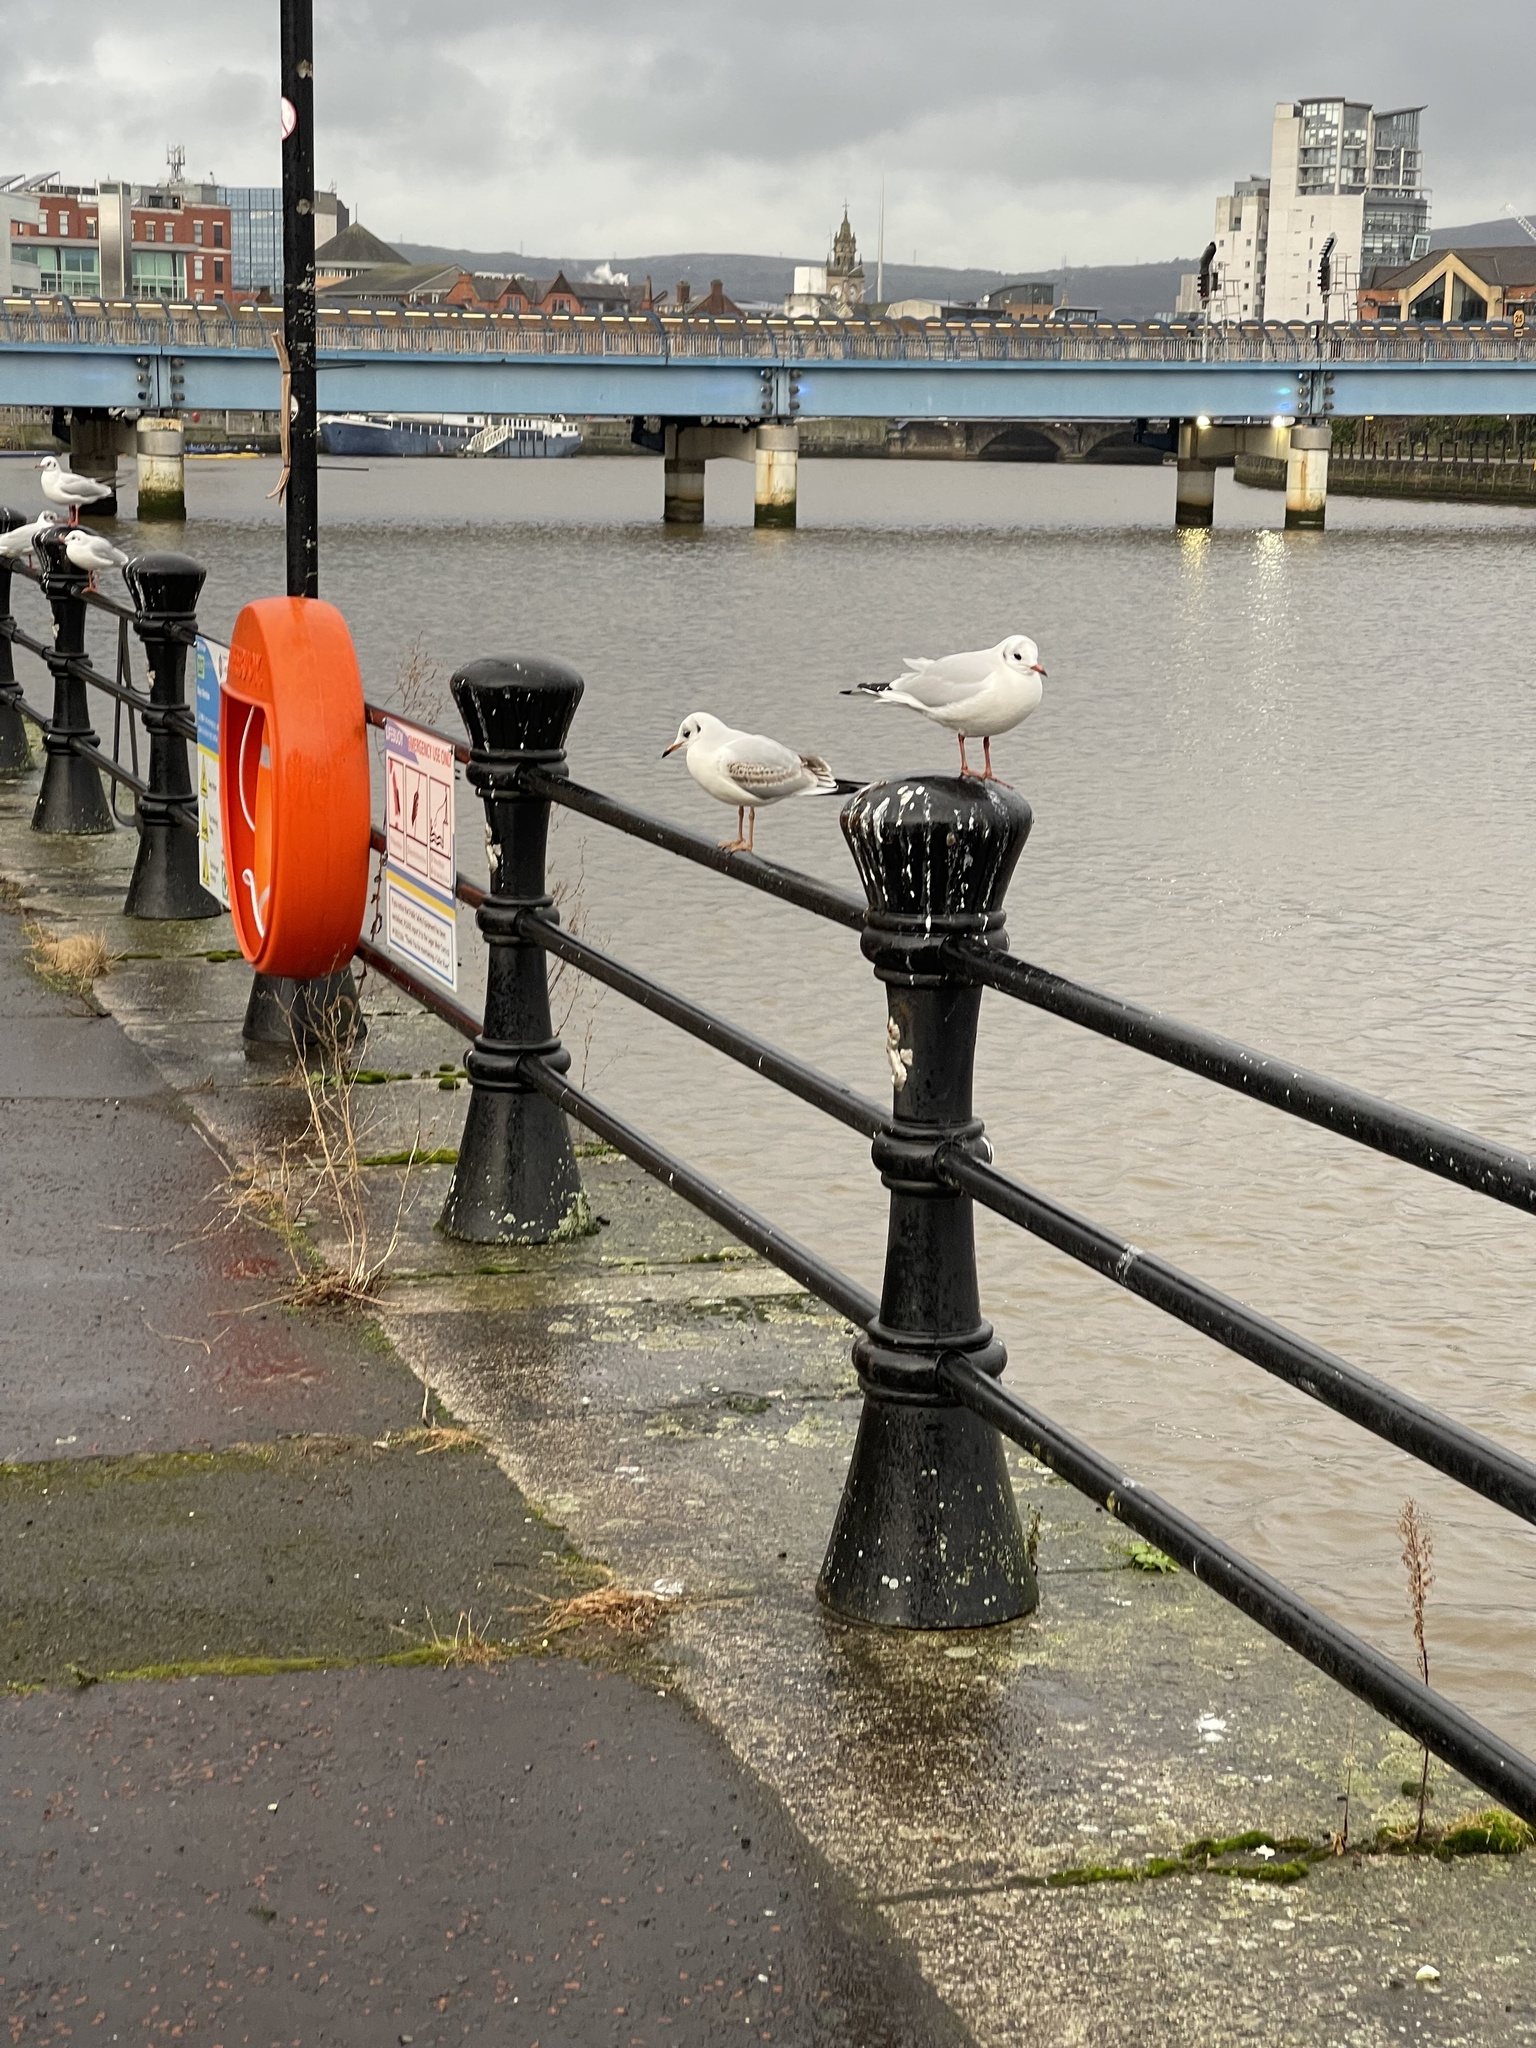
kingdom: Animalia
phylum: Chordata
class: Aves
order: Charadriiformes
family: Laridae
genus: Chroicocephalus
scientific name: Chroicocephalus ridibundus
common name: Black-headed gull
